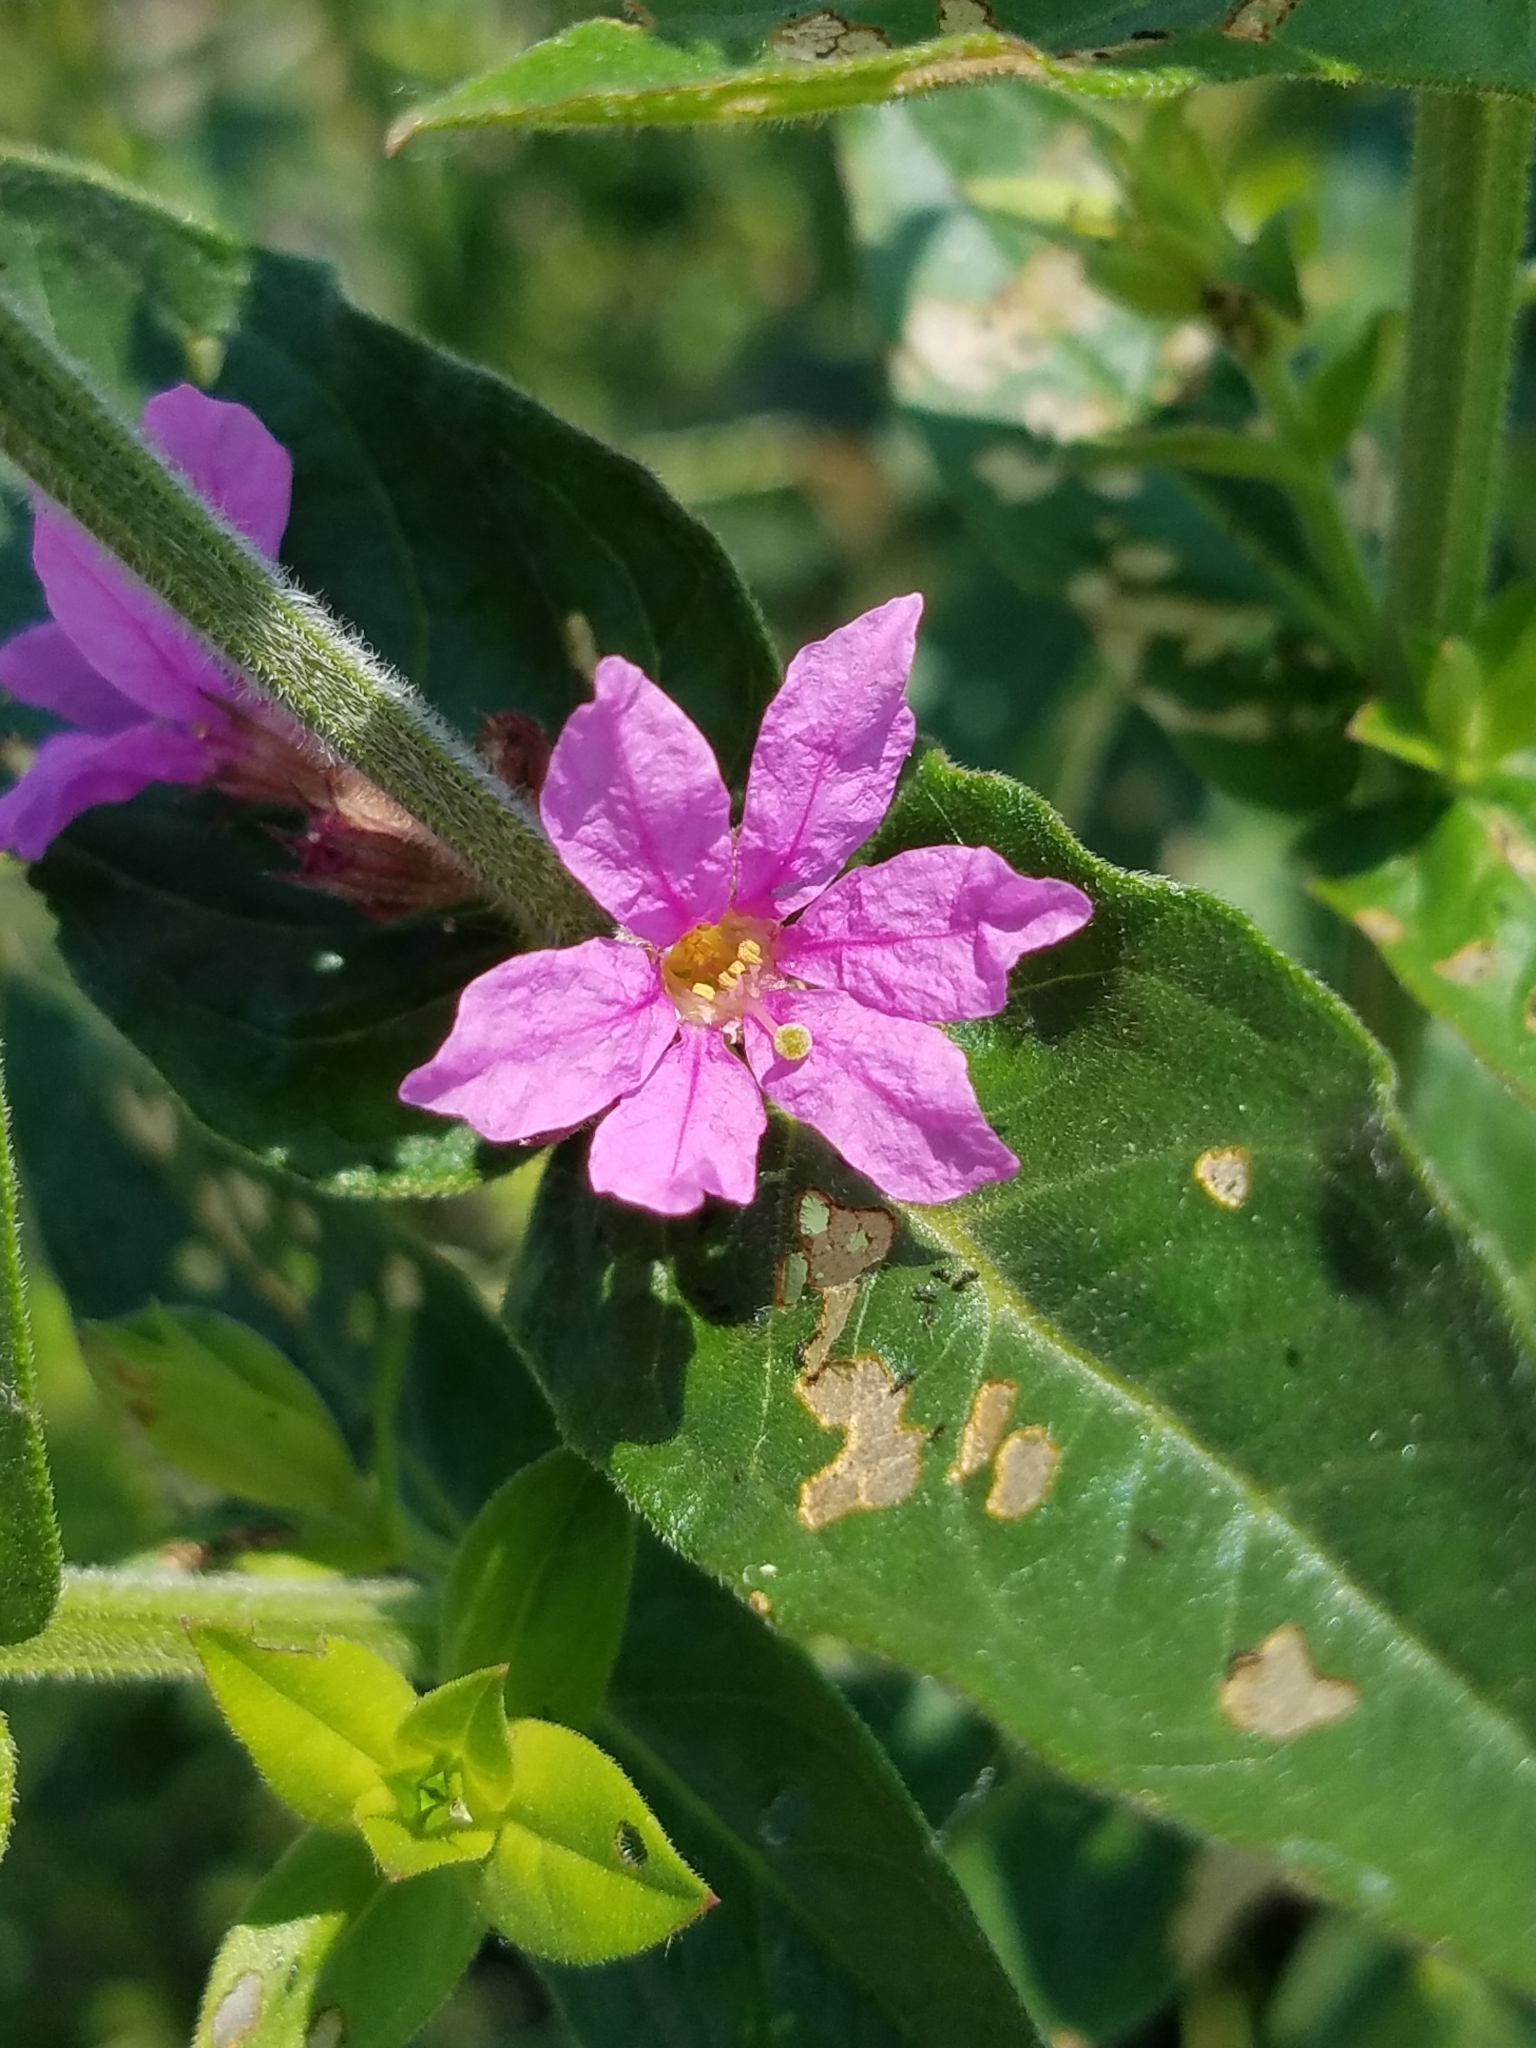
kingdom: Plantae
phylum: Tracheophyta
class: Magnoliopsida
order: Myrtales
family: Lythraceae
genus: Lythrum
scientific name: Lythrum salicaria
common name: Purple loosestrife
